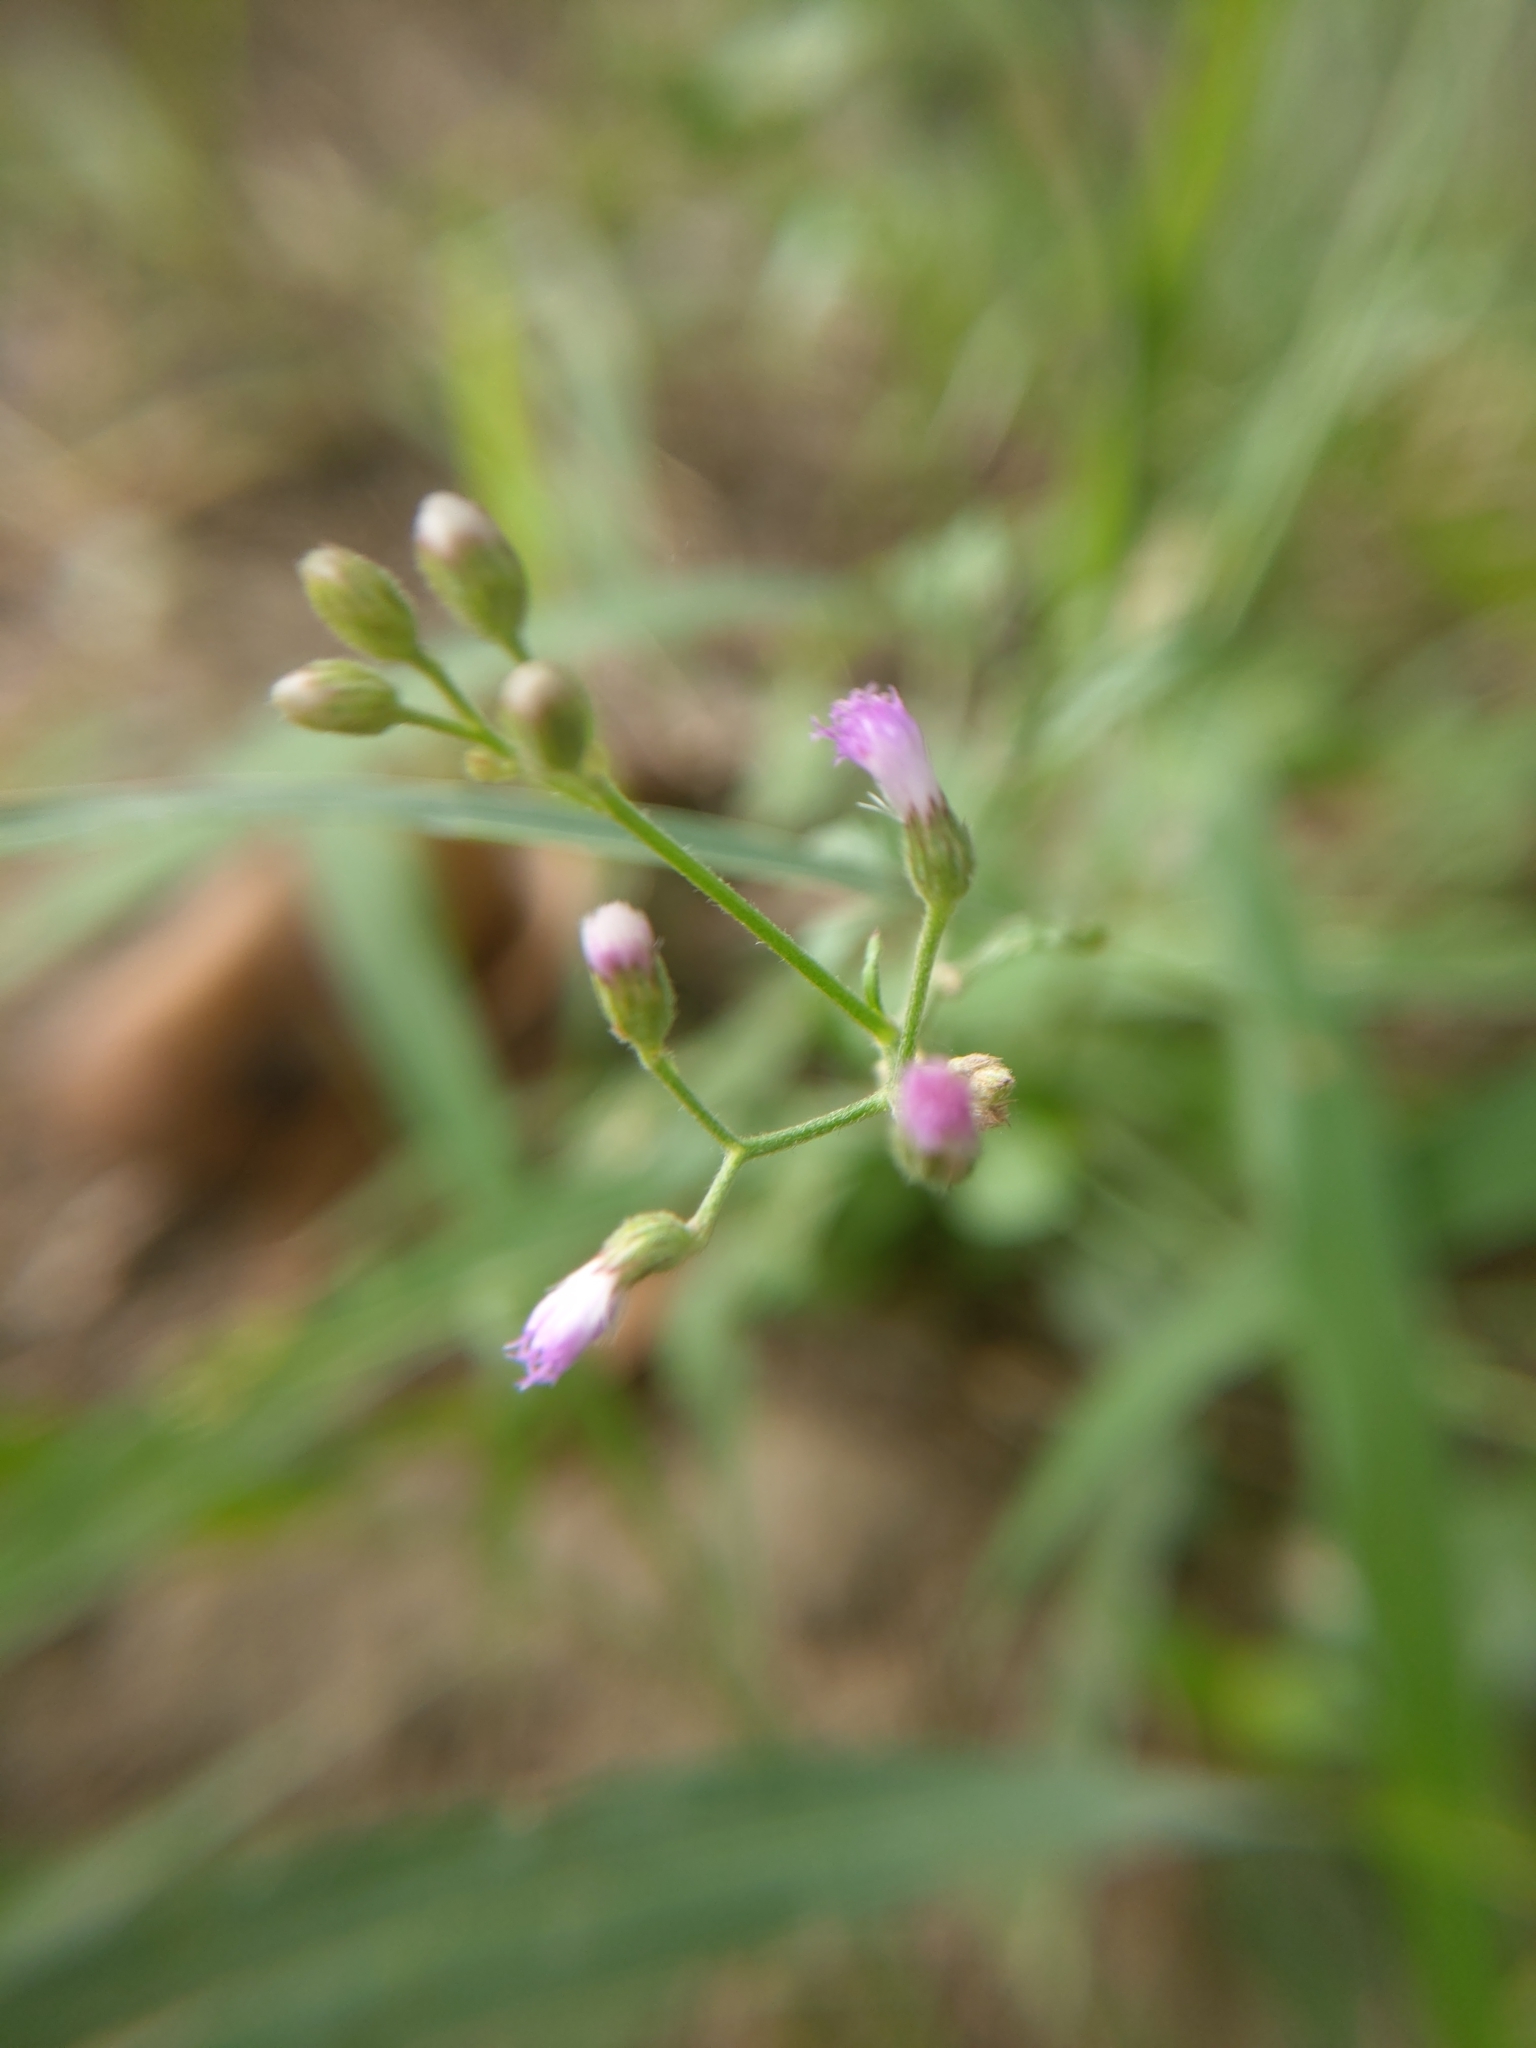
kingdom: Plantae
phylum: Tracheophyta
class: Magnoliopsida
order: Asterales
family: Asteraceae
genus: Cyanthillium
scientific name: Cyanthillium cinereum
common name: Little ironweed
